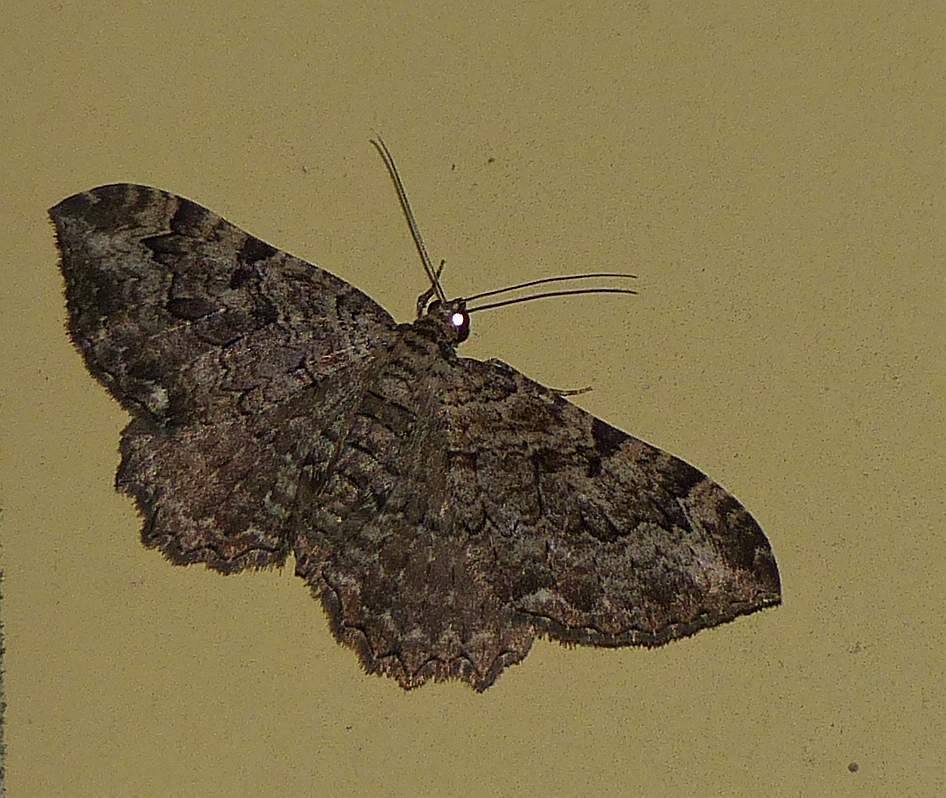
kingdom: Animalia
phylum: Arthropoda
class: Insecta
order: Lepidoptera
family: Geometridae
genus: Rheumaptera
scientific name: Rheumaptera
